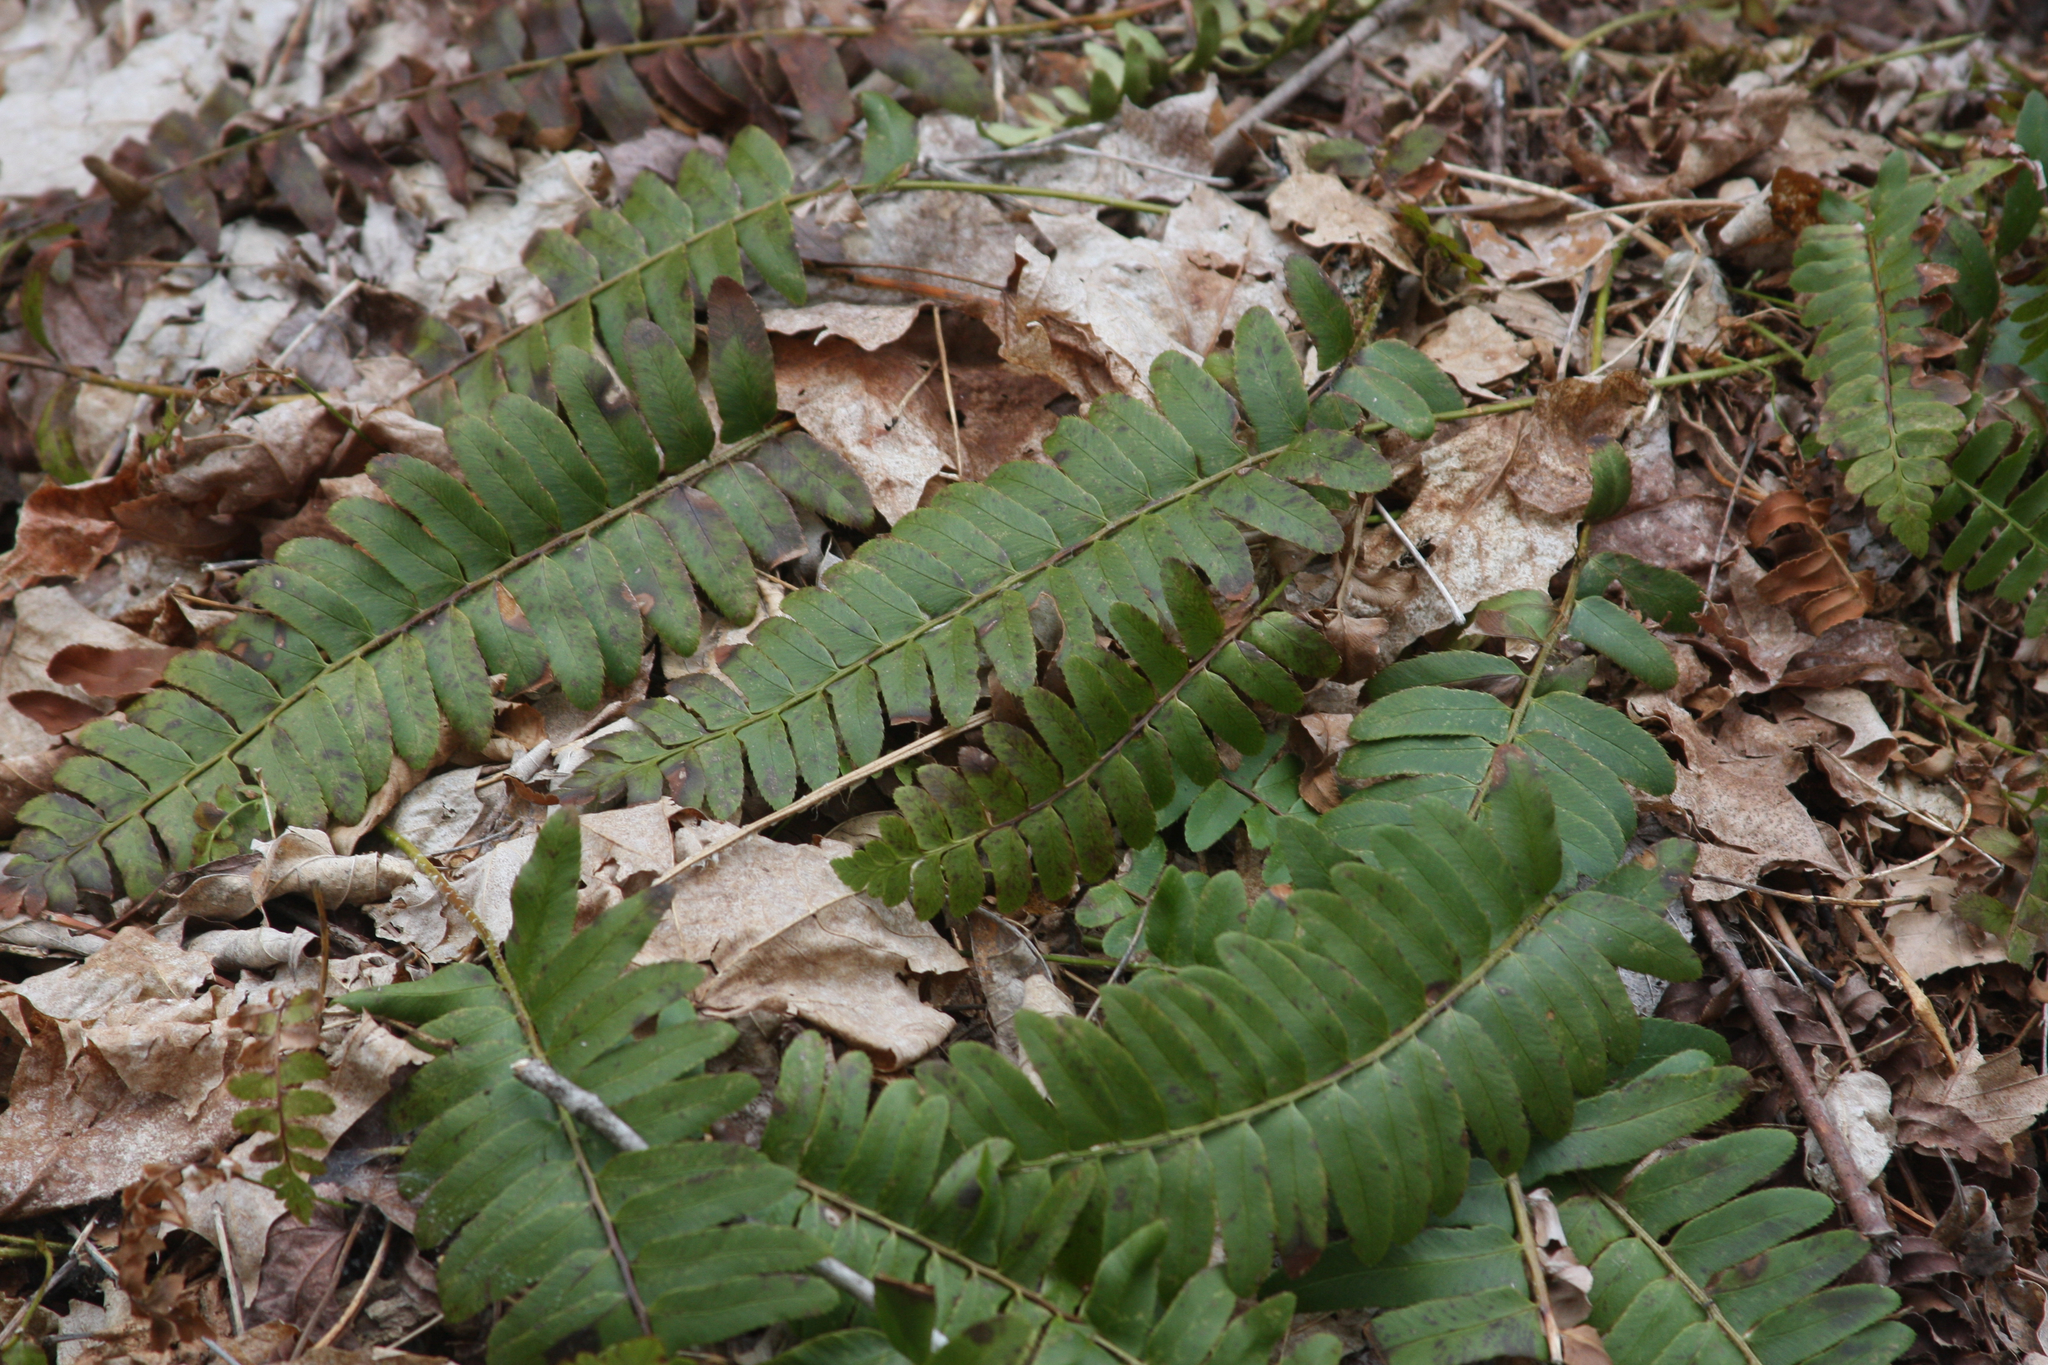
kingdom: Plantae
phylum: Tracheophyta
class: Polypodiopsida
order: Polypodiales
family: Dryopteridaceae
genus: Polystichum
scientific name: Polystichum acrostichoides
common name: Christmas fern
